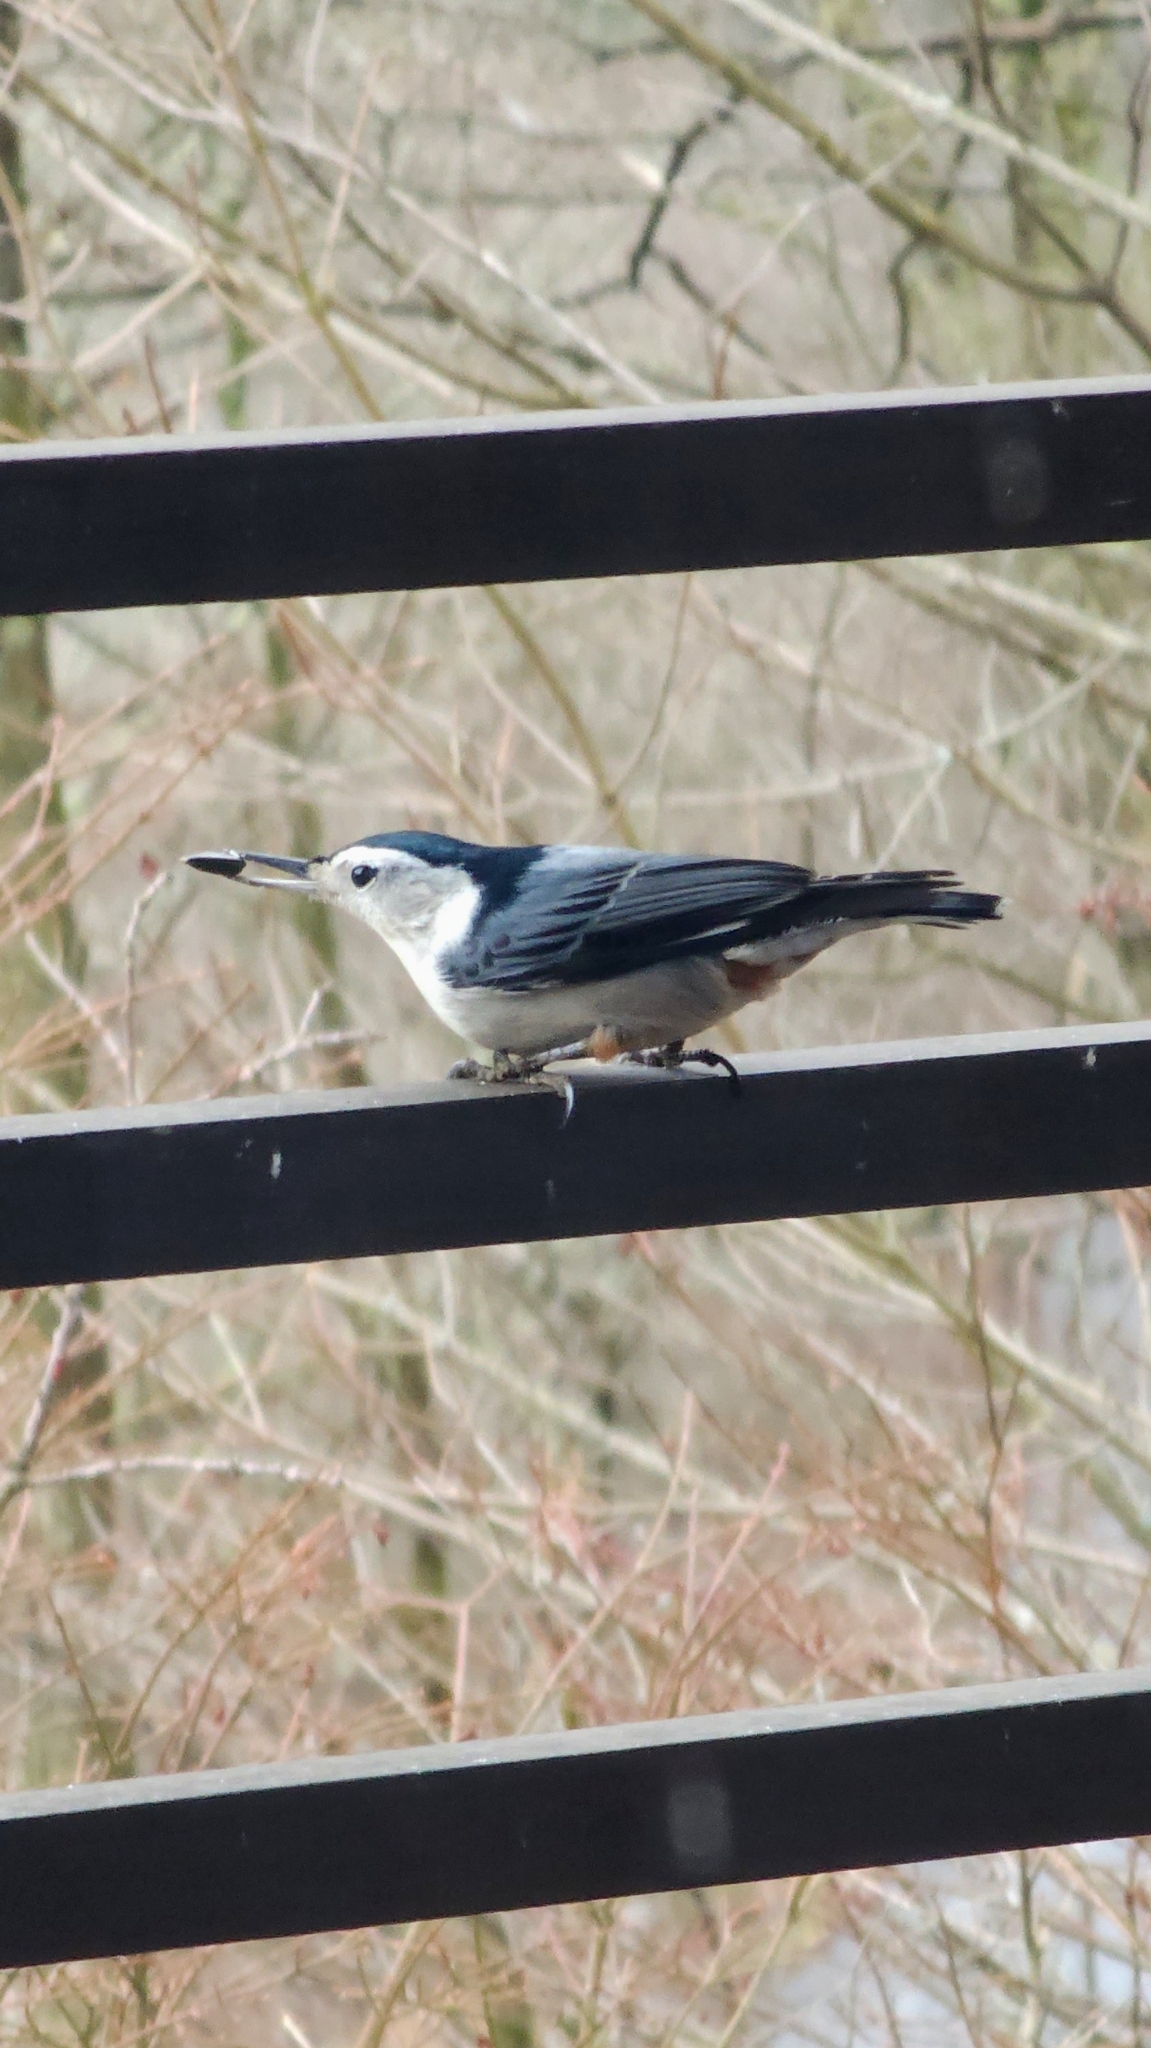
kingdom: Animalia
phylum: Chordata
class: Aves
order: Passeriformes
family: Sittidae
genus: Sitta
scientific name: Sitta carolinensis
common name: White-breasted nuthatch
